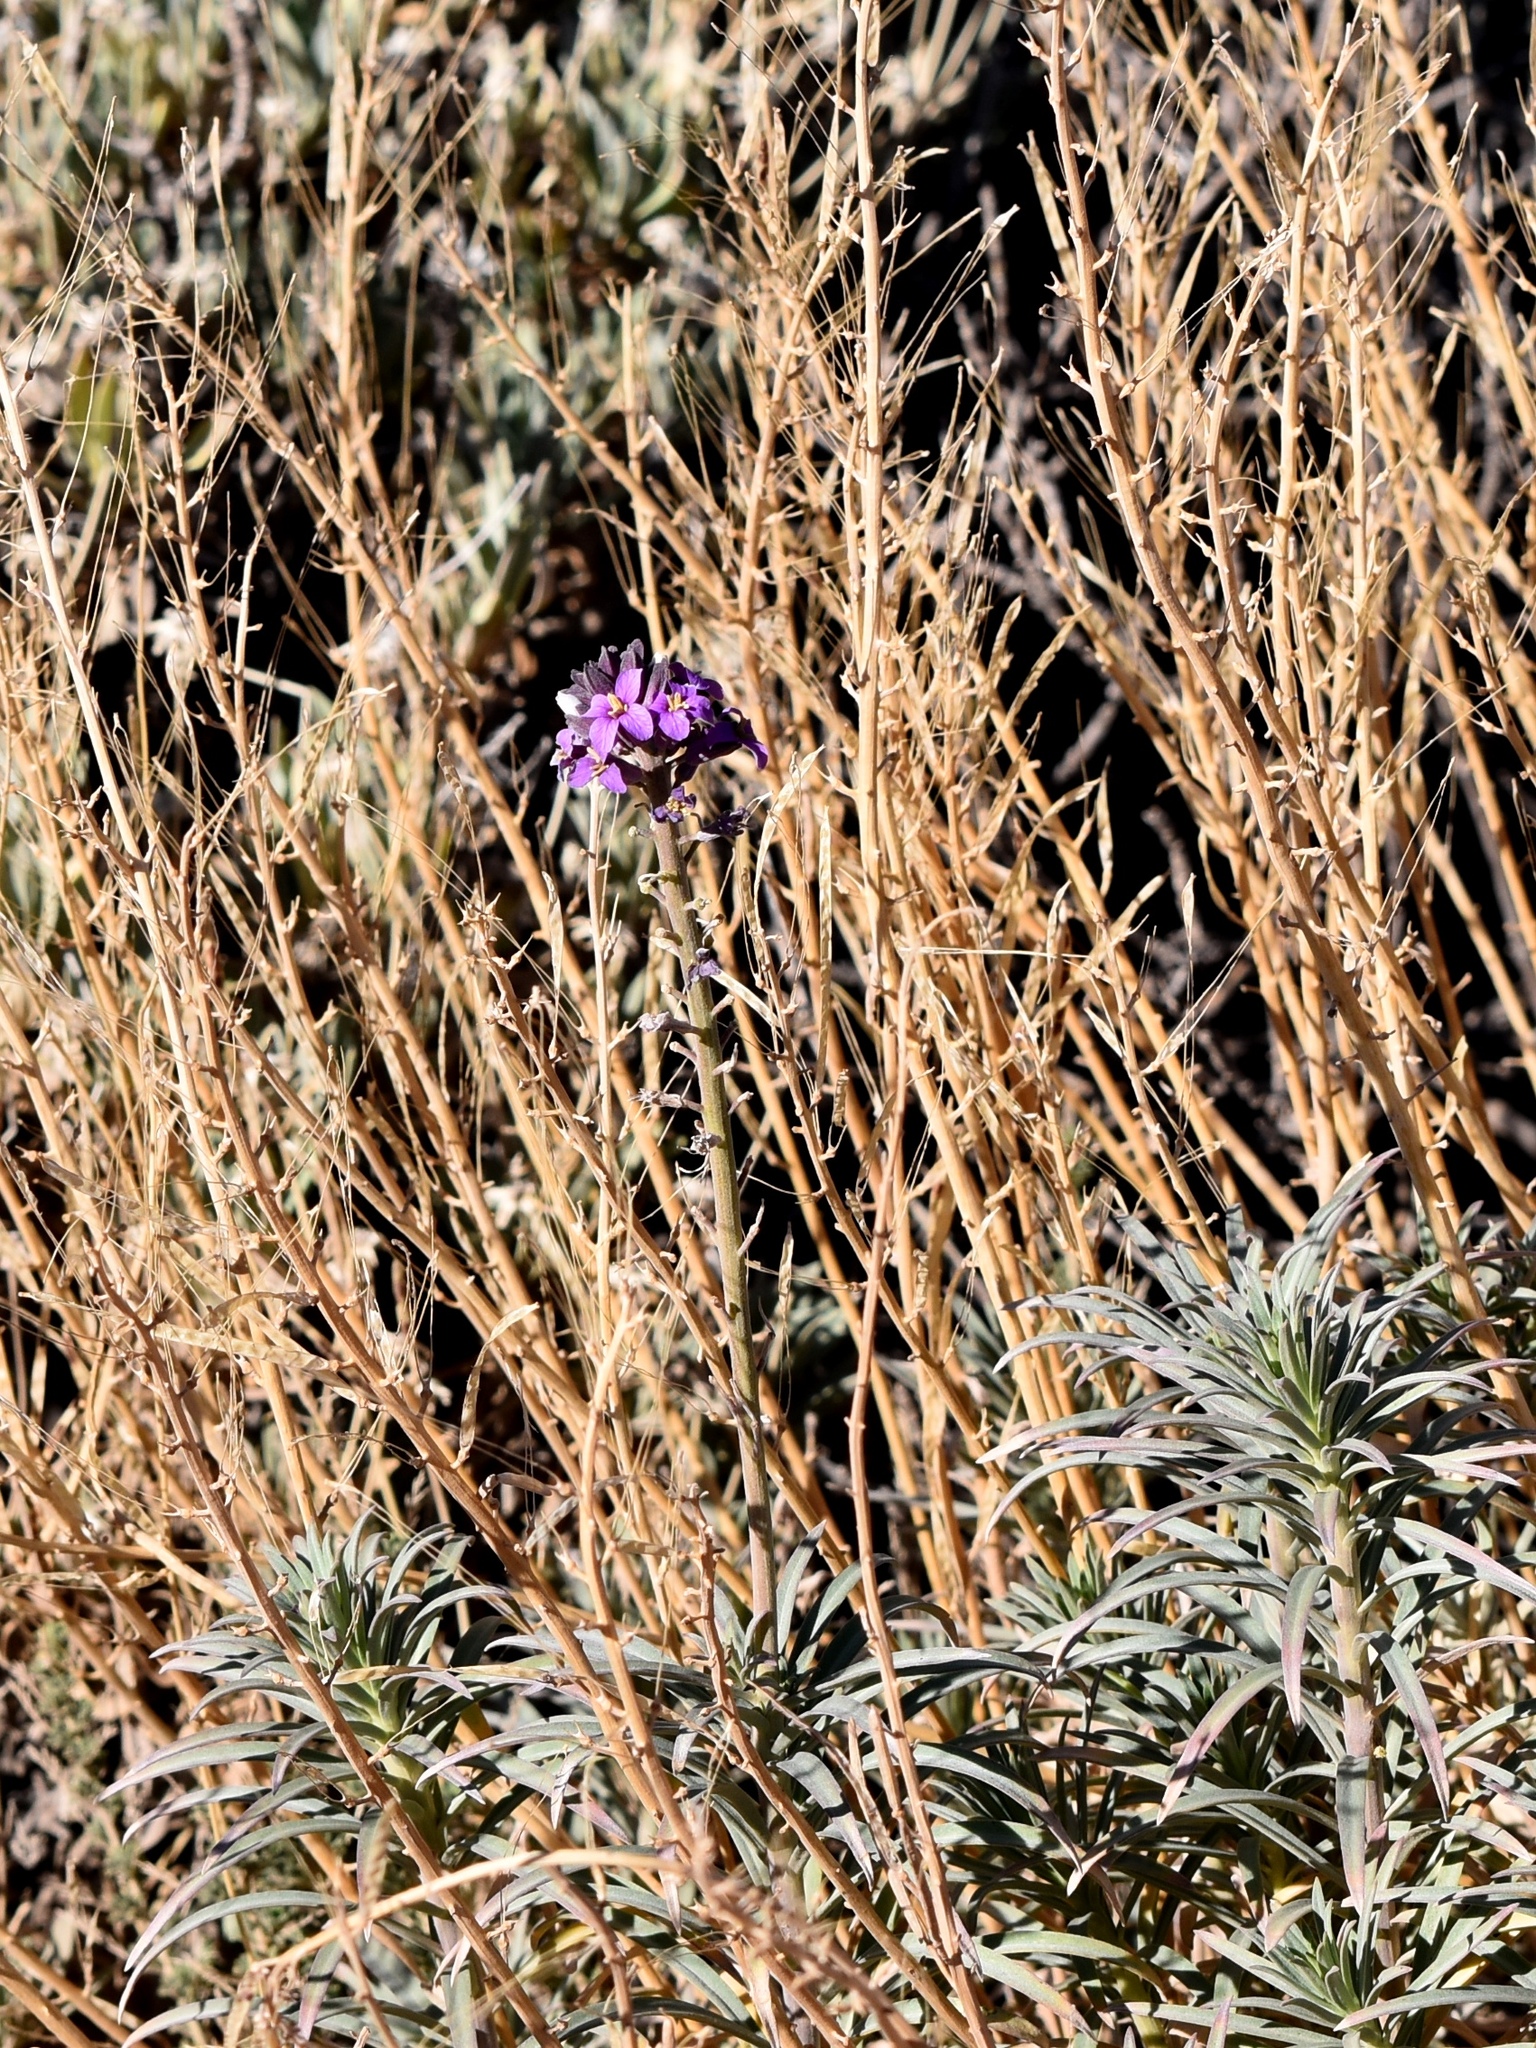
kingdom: Plantae
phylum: Tracheophyta
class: Magnoliopsida
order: Brassicales
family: Brassicaceae
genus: Erysimum
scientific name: Erysimum scoparium
